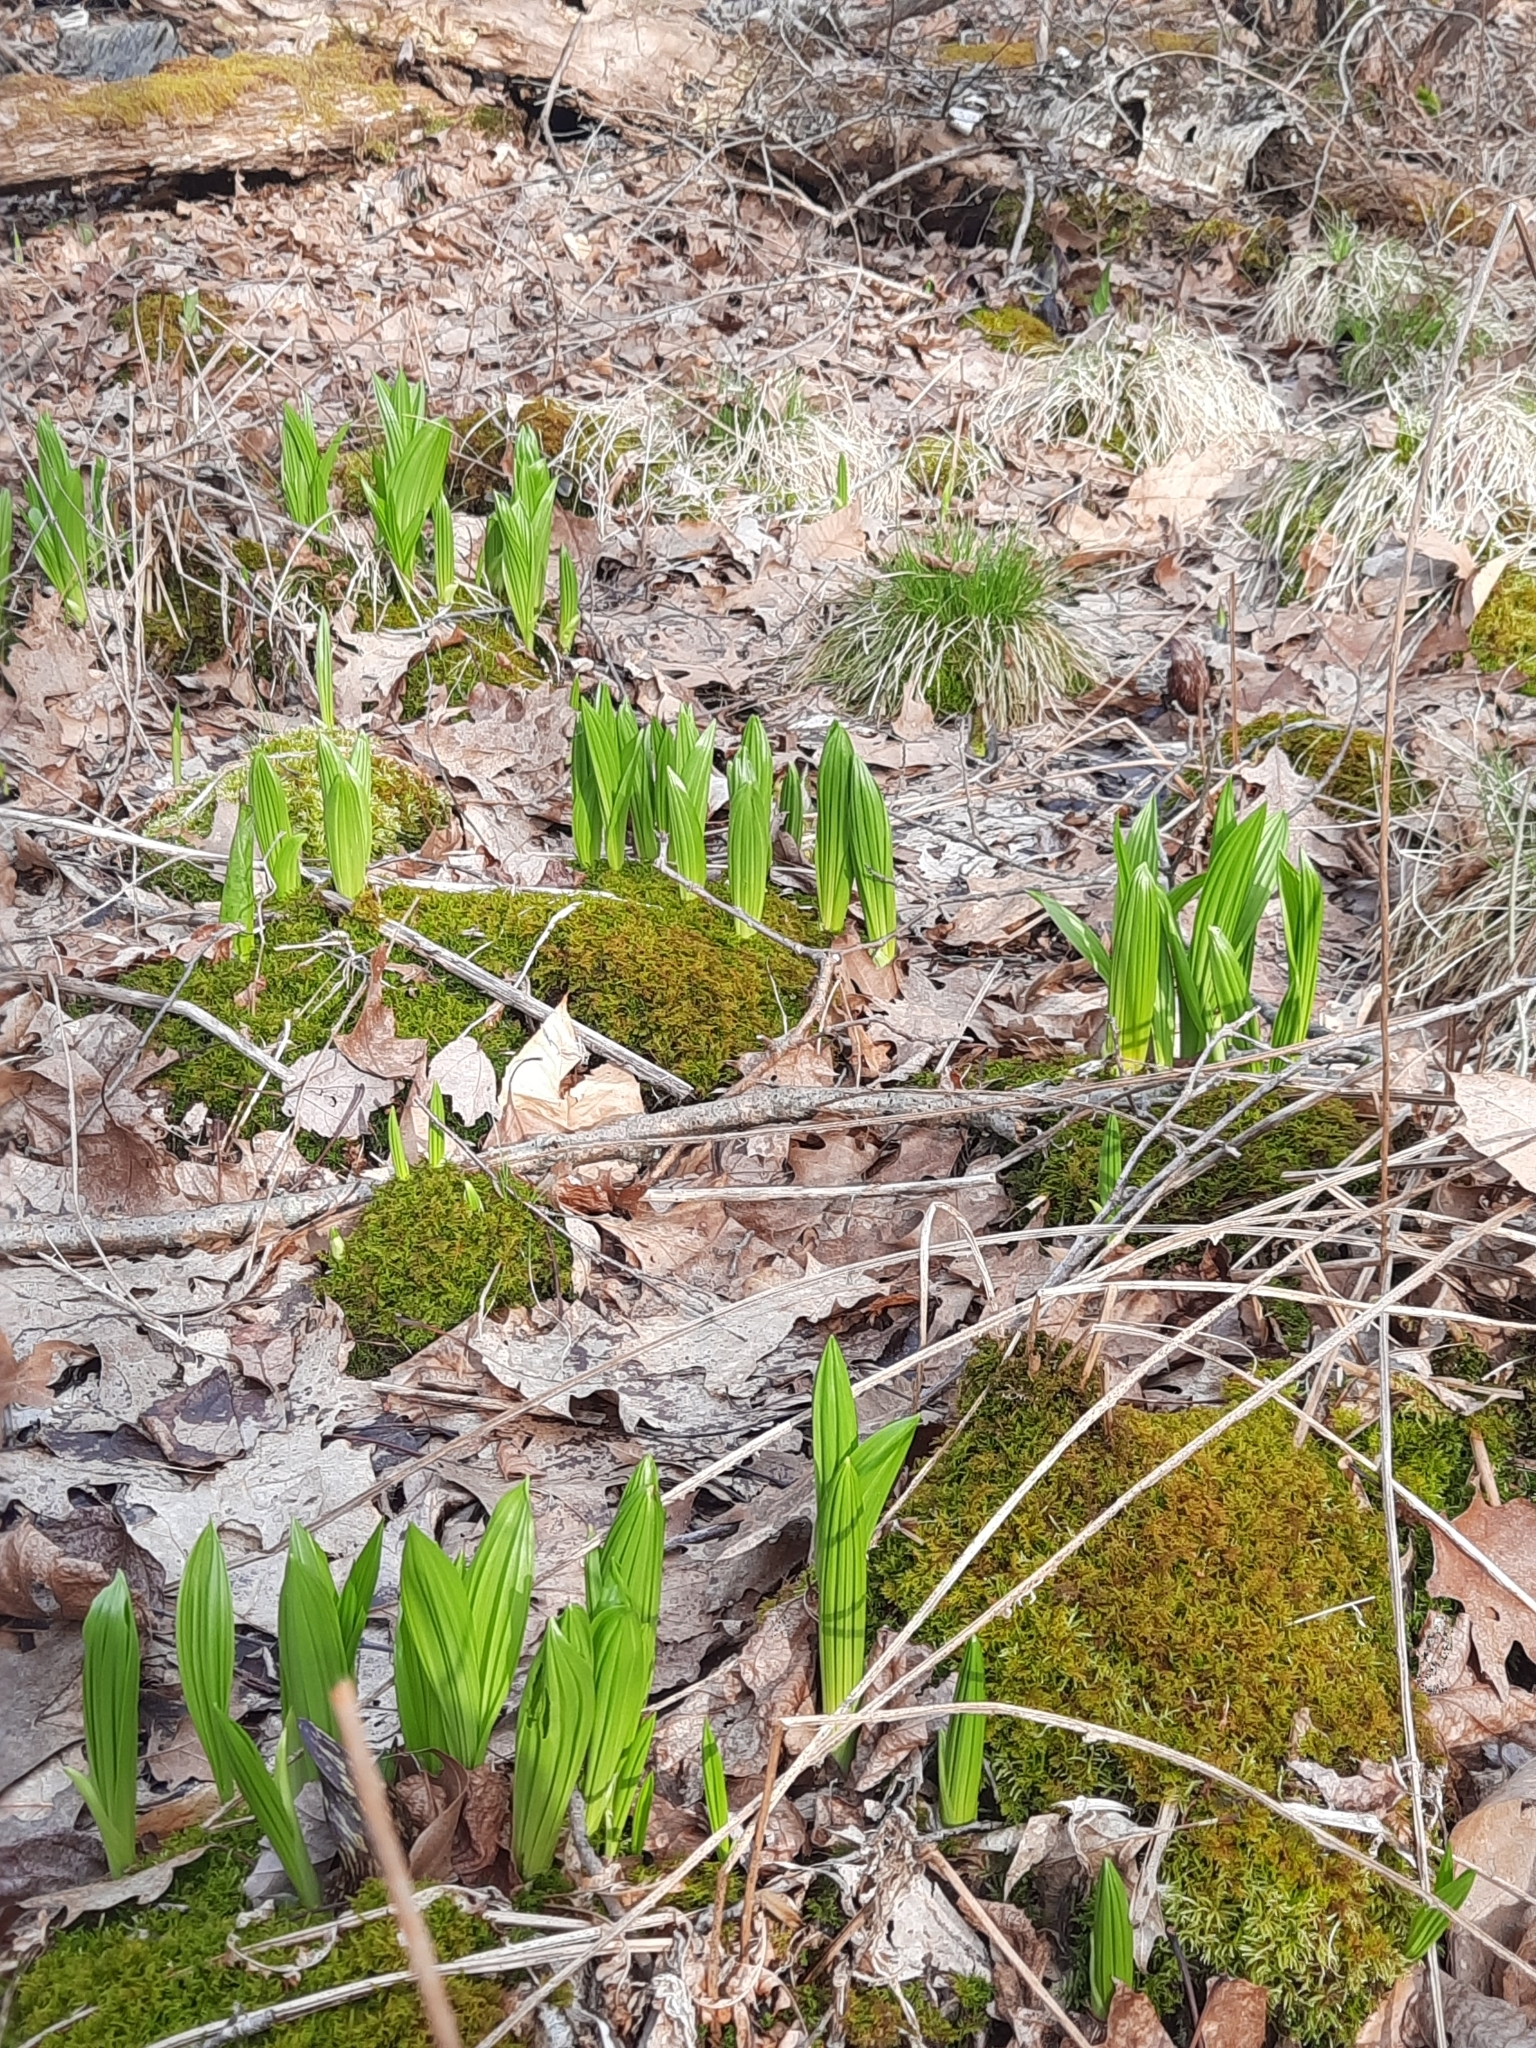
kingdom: Plantae
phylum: Tracheophyta
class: Liliopsida
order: Liliales
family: Melanthiaceae
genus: Veratrum
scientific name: Veratrum viride
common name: American false hellebore
